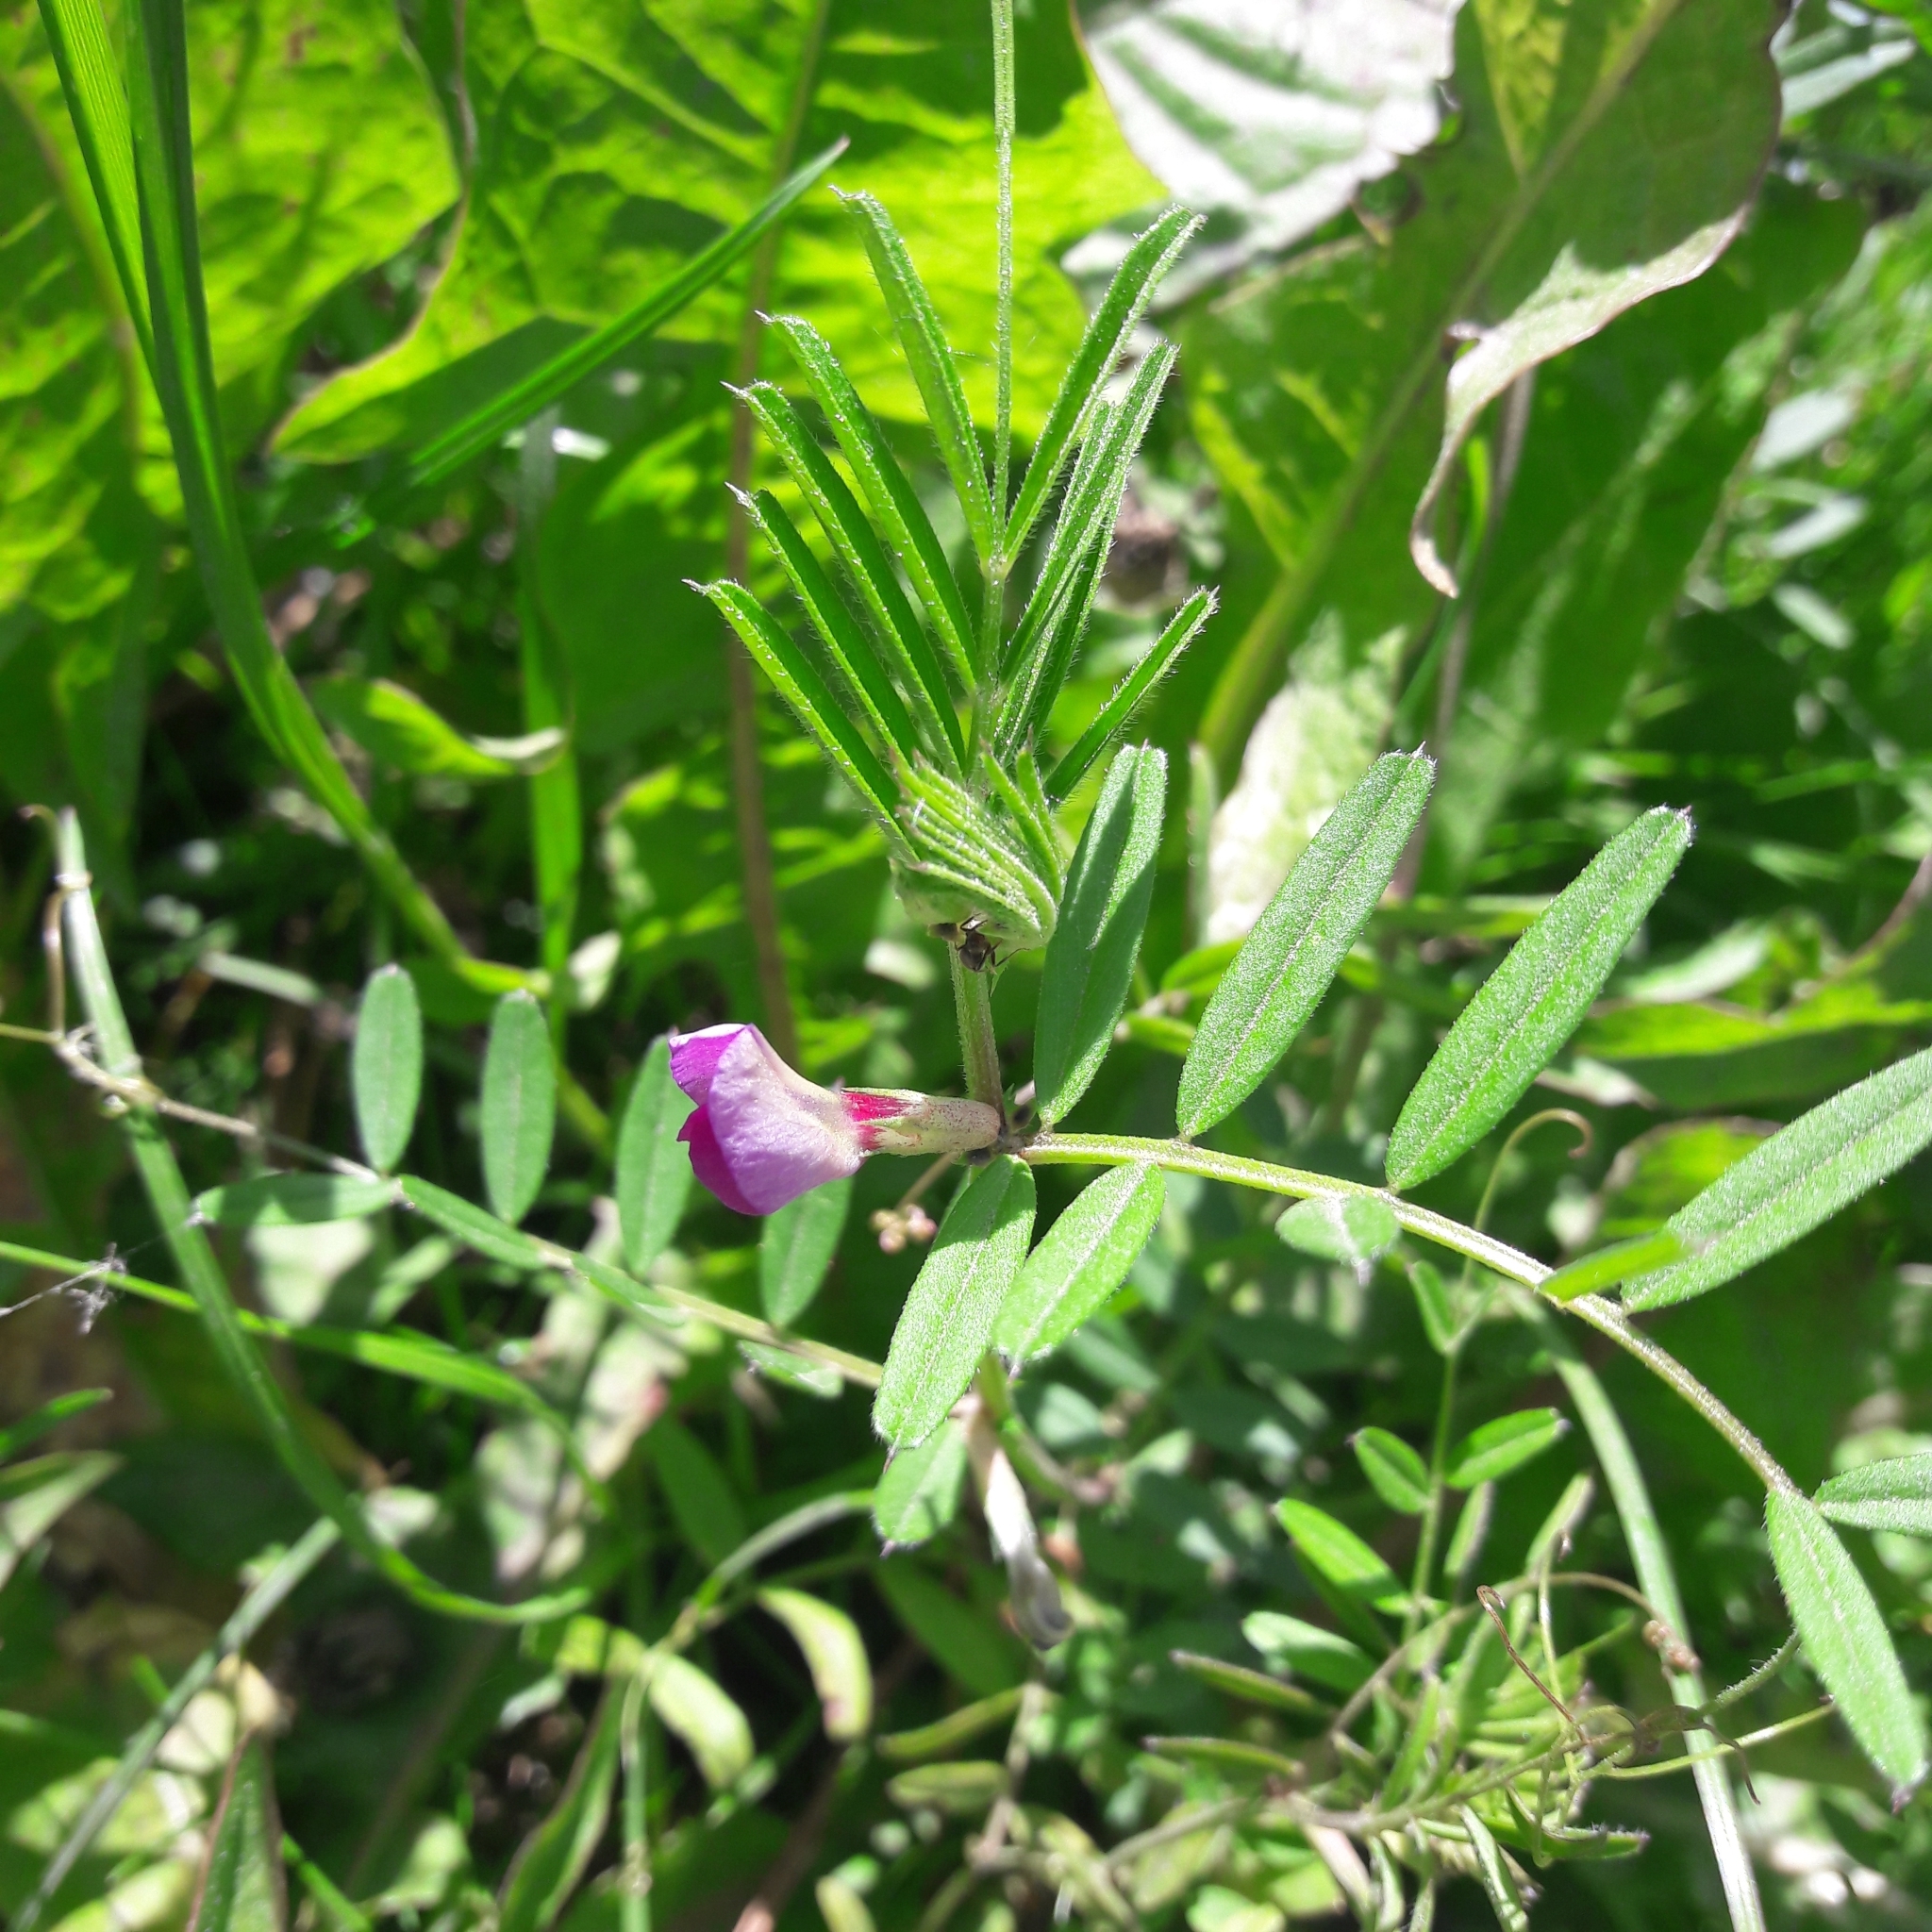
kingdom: Plantae
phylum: Tracheophyta
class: Magnoliopsida
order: Fabales
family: Fabaceae
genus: Vicia
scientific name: Vicia sativa
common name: Garden vetch
